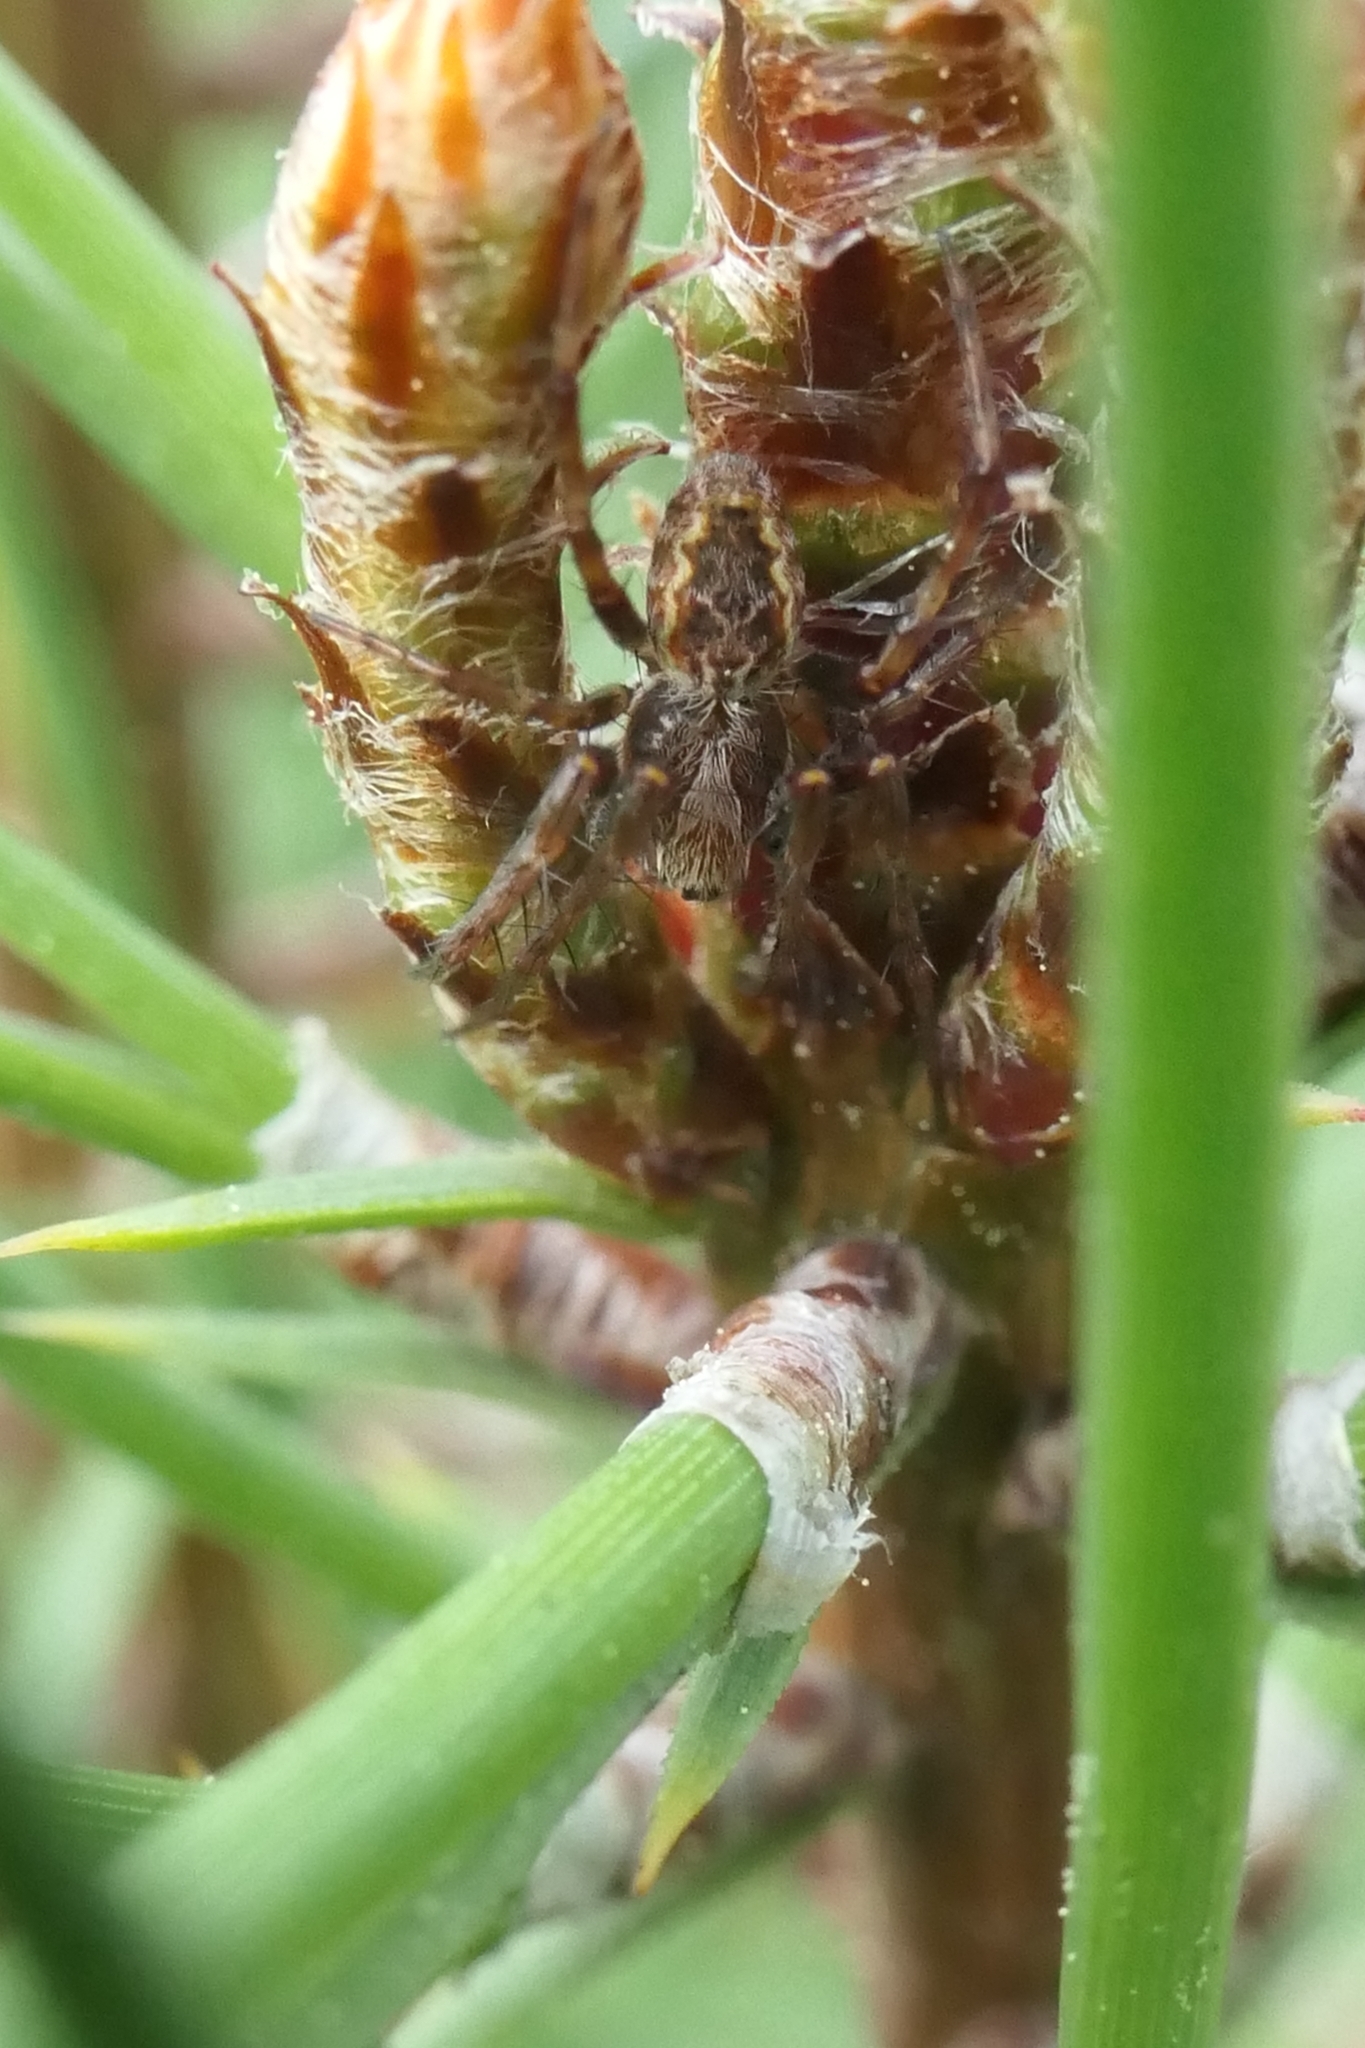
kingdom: Animalia
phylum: Arthropoda
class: Arachnida
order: Araneae
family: Araneidae
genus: Salsa
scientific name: Salsa fuliginata
